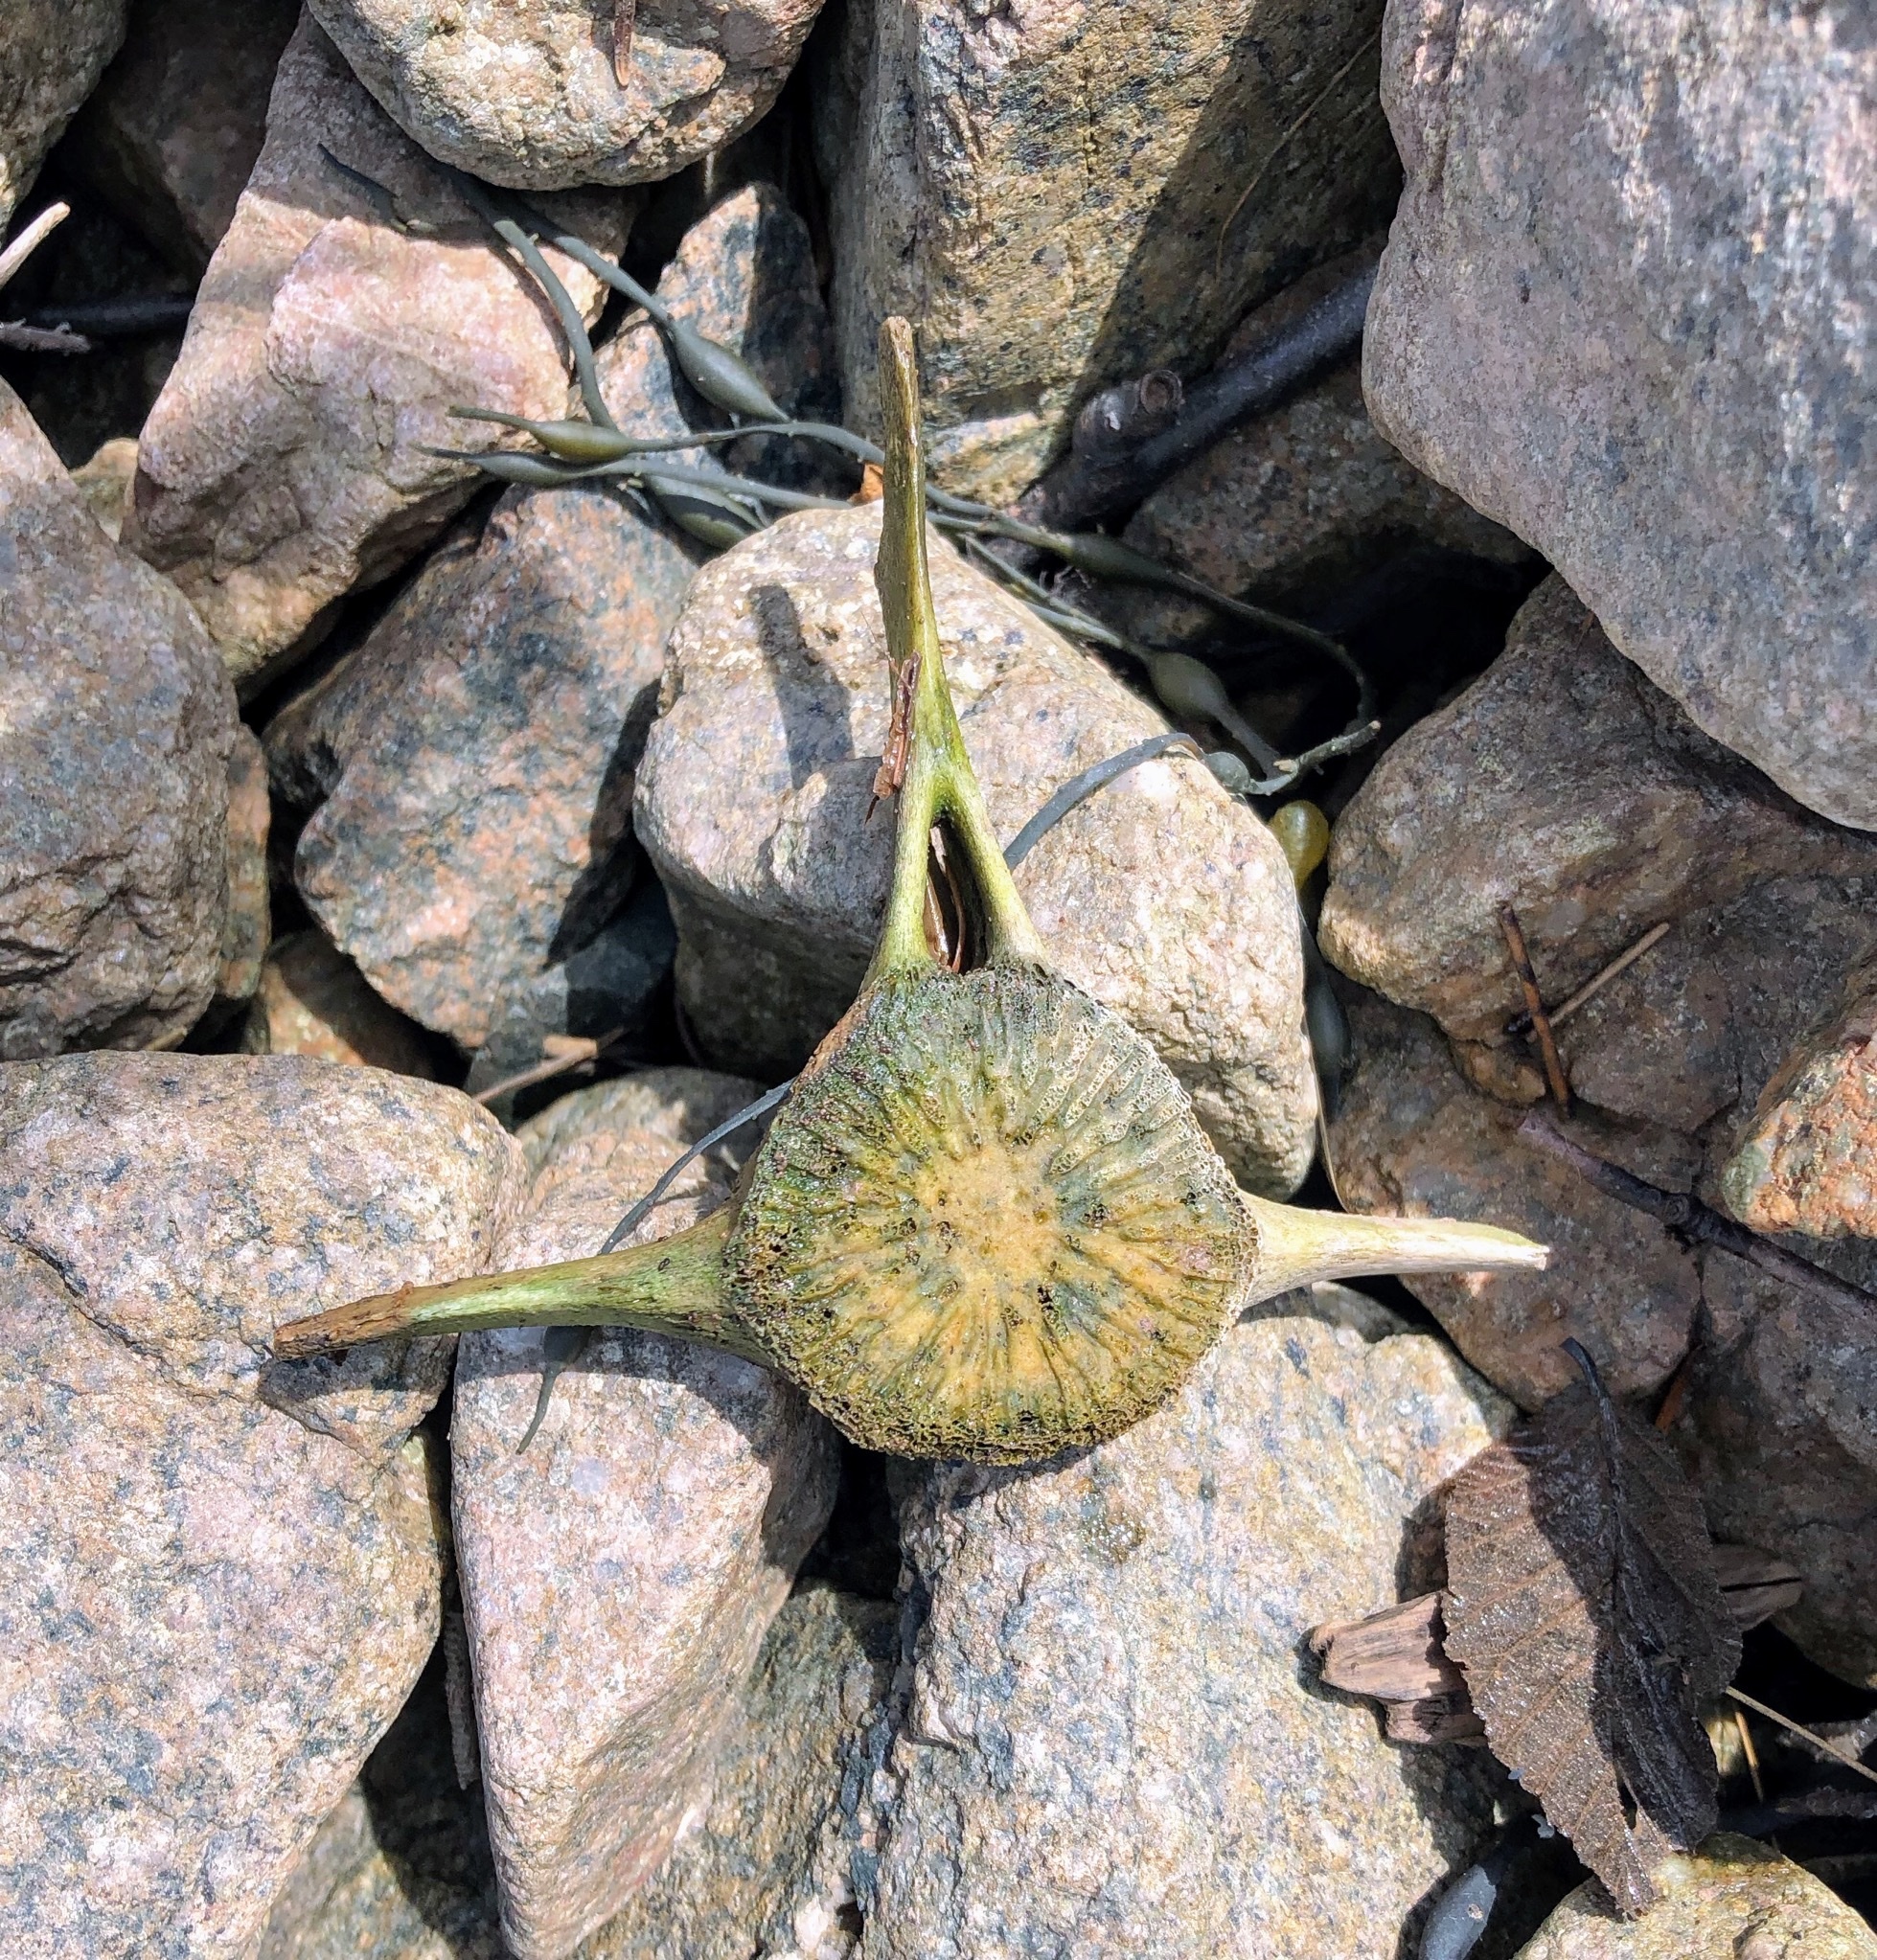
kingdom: Animalia
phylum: Chordata
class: Mammalia
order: Cetacea
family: Phocoenidae
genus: Phocoena
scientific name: Phocoena phocoena
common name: Harbor porpoise
